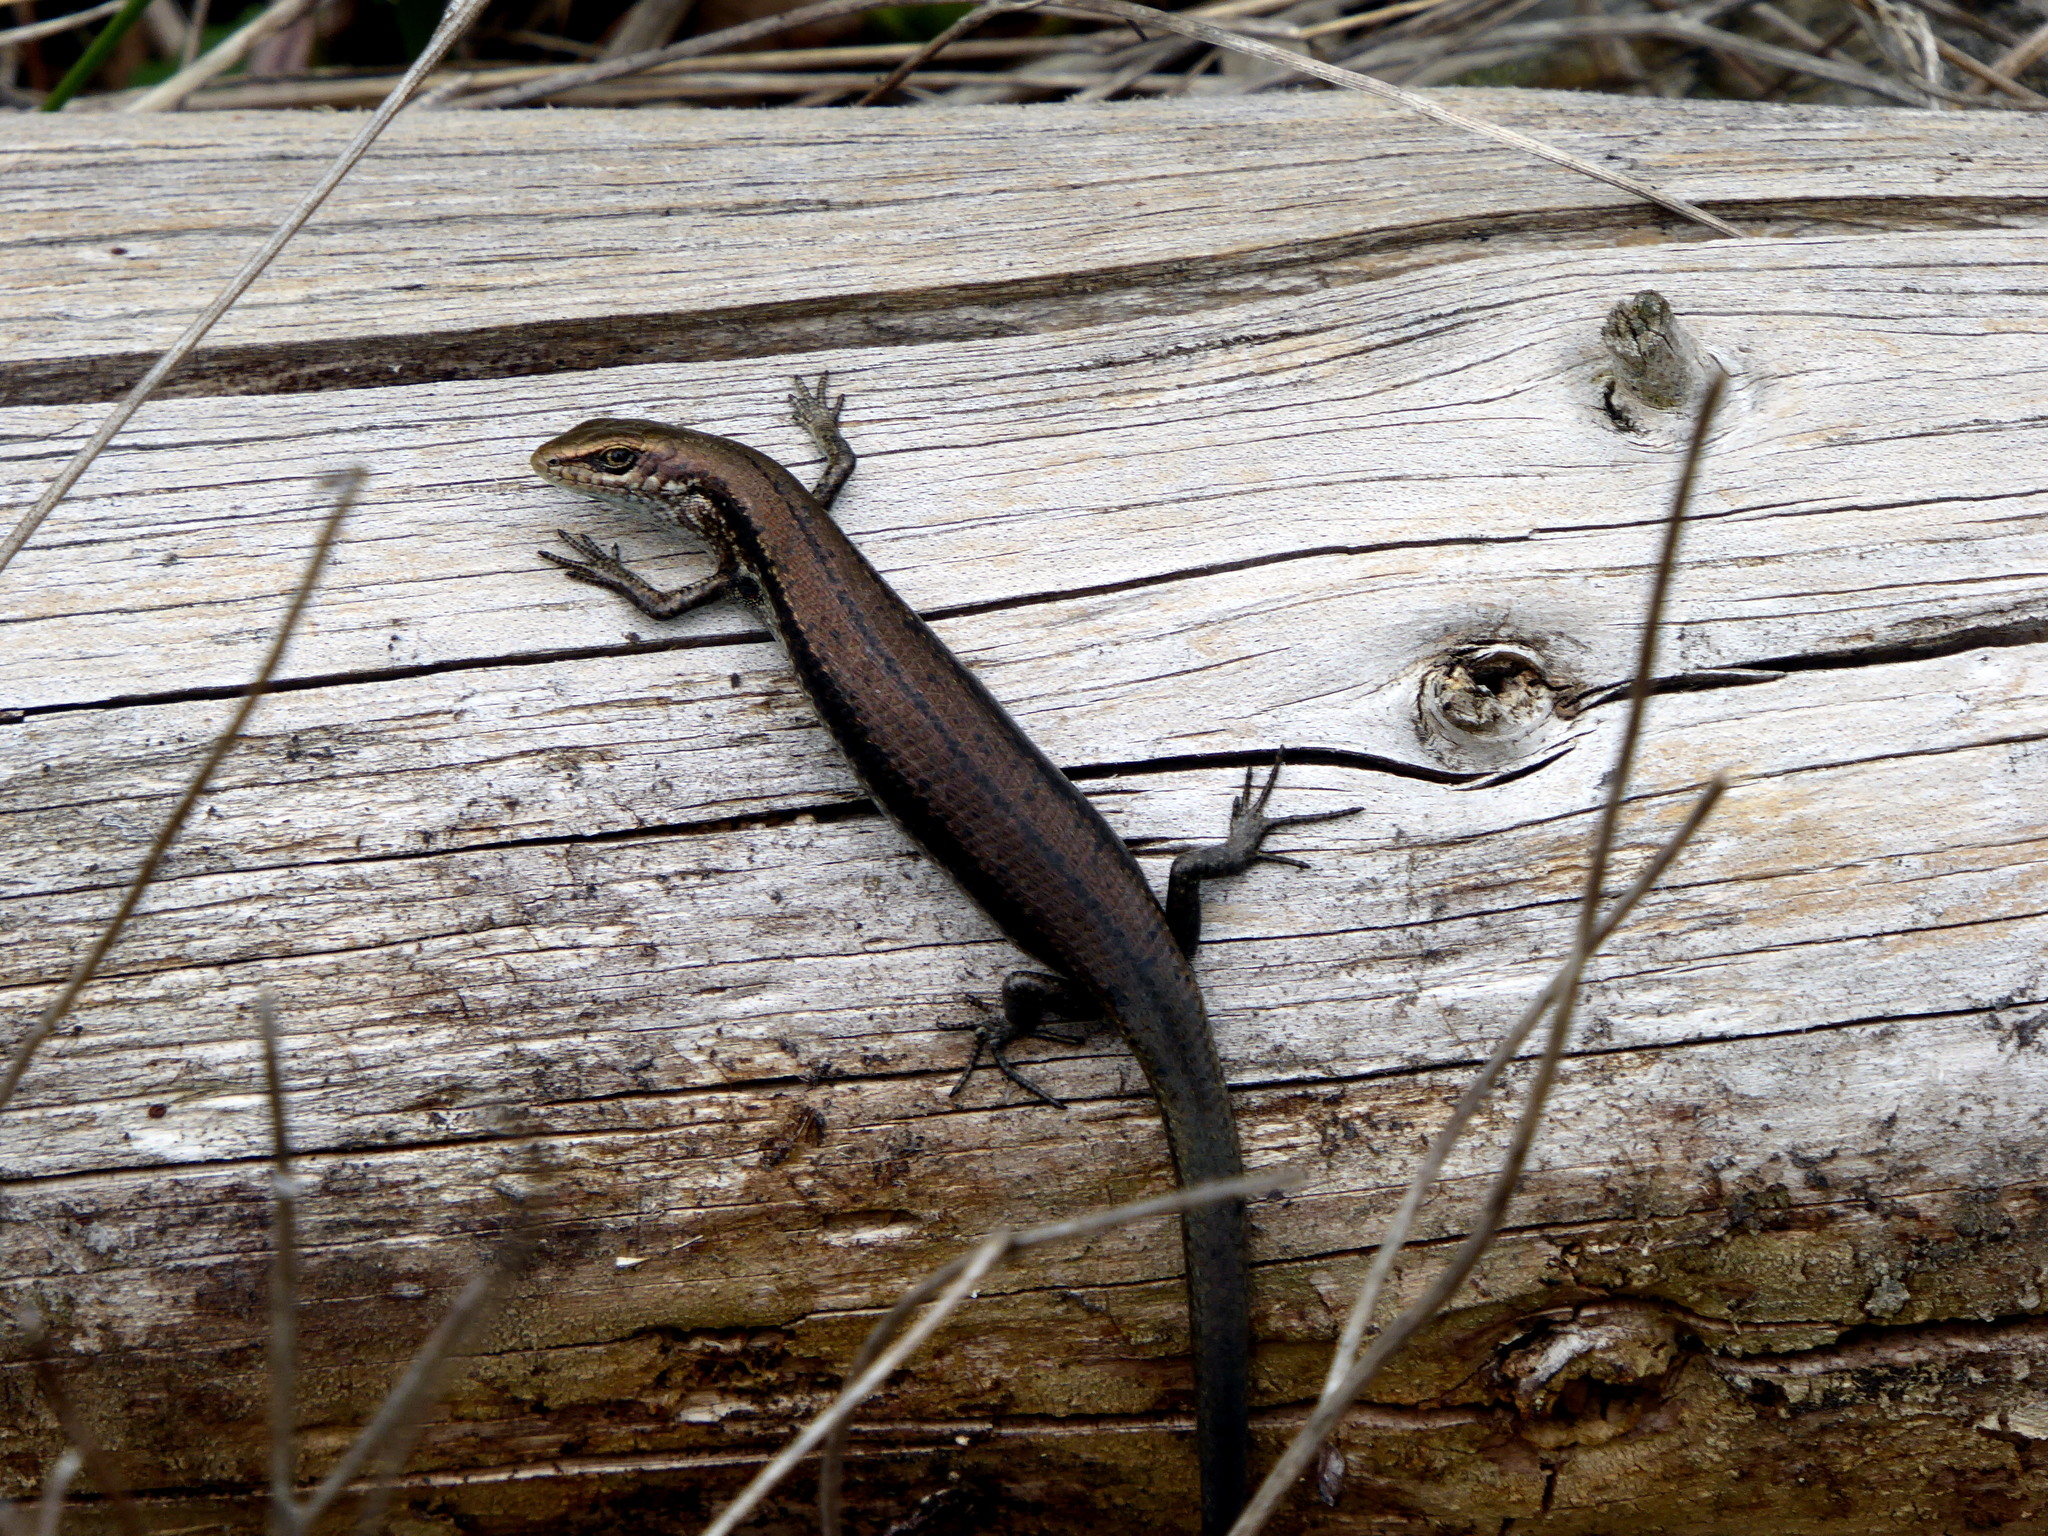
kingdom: Animalia
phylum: Chordata
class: Squamata
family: Scincidae
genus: Pseudemoia
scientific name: Pseudemoia entrecasteauxii
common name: Entrecasteaux's skink
